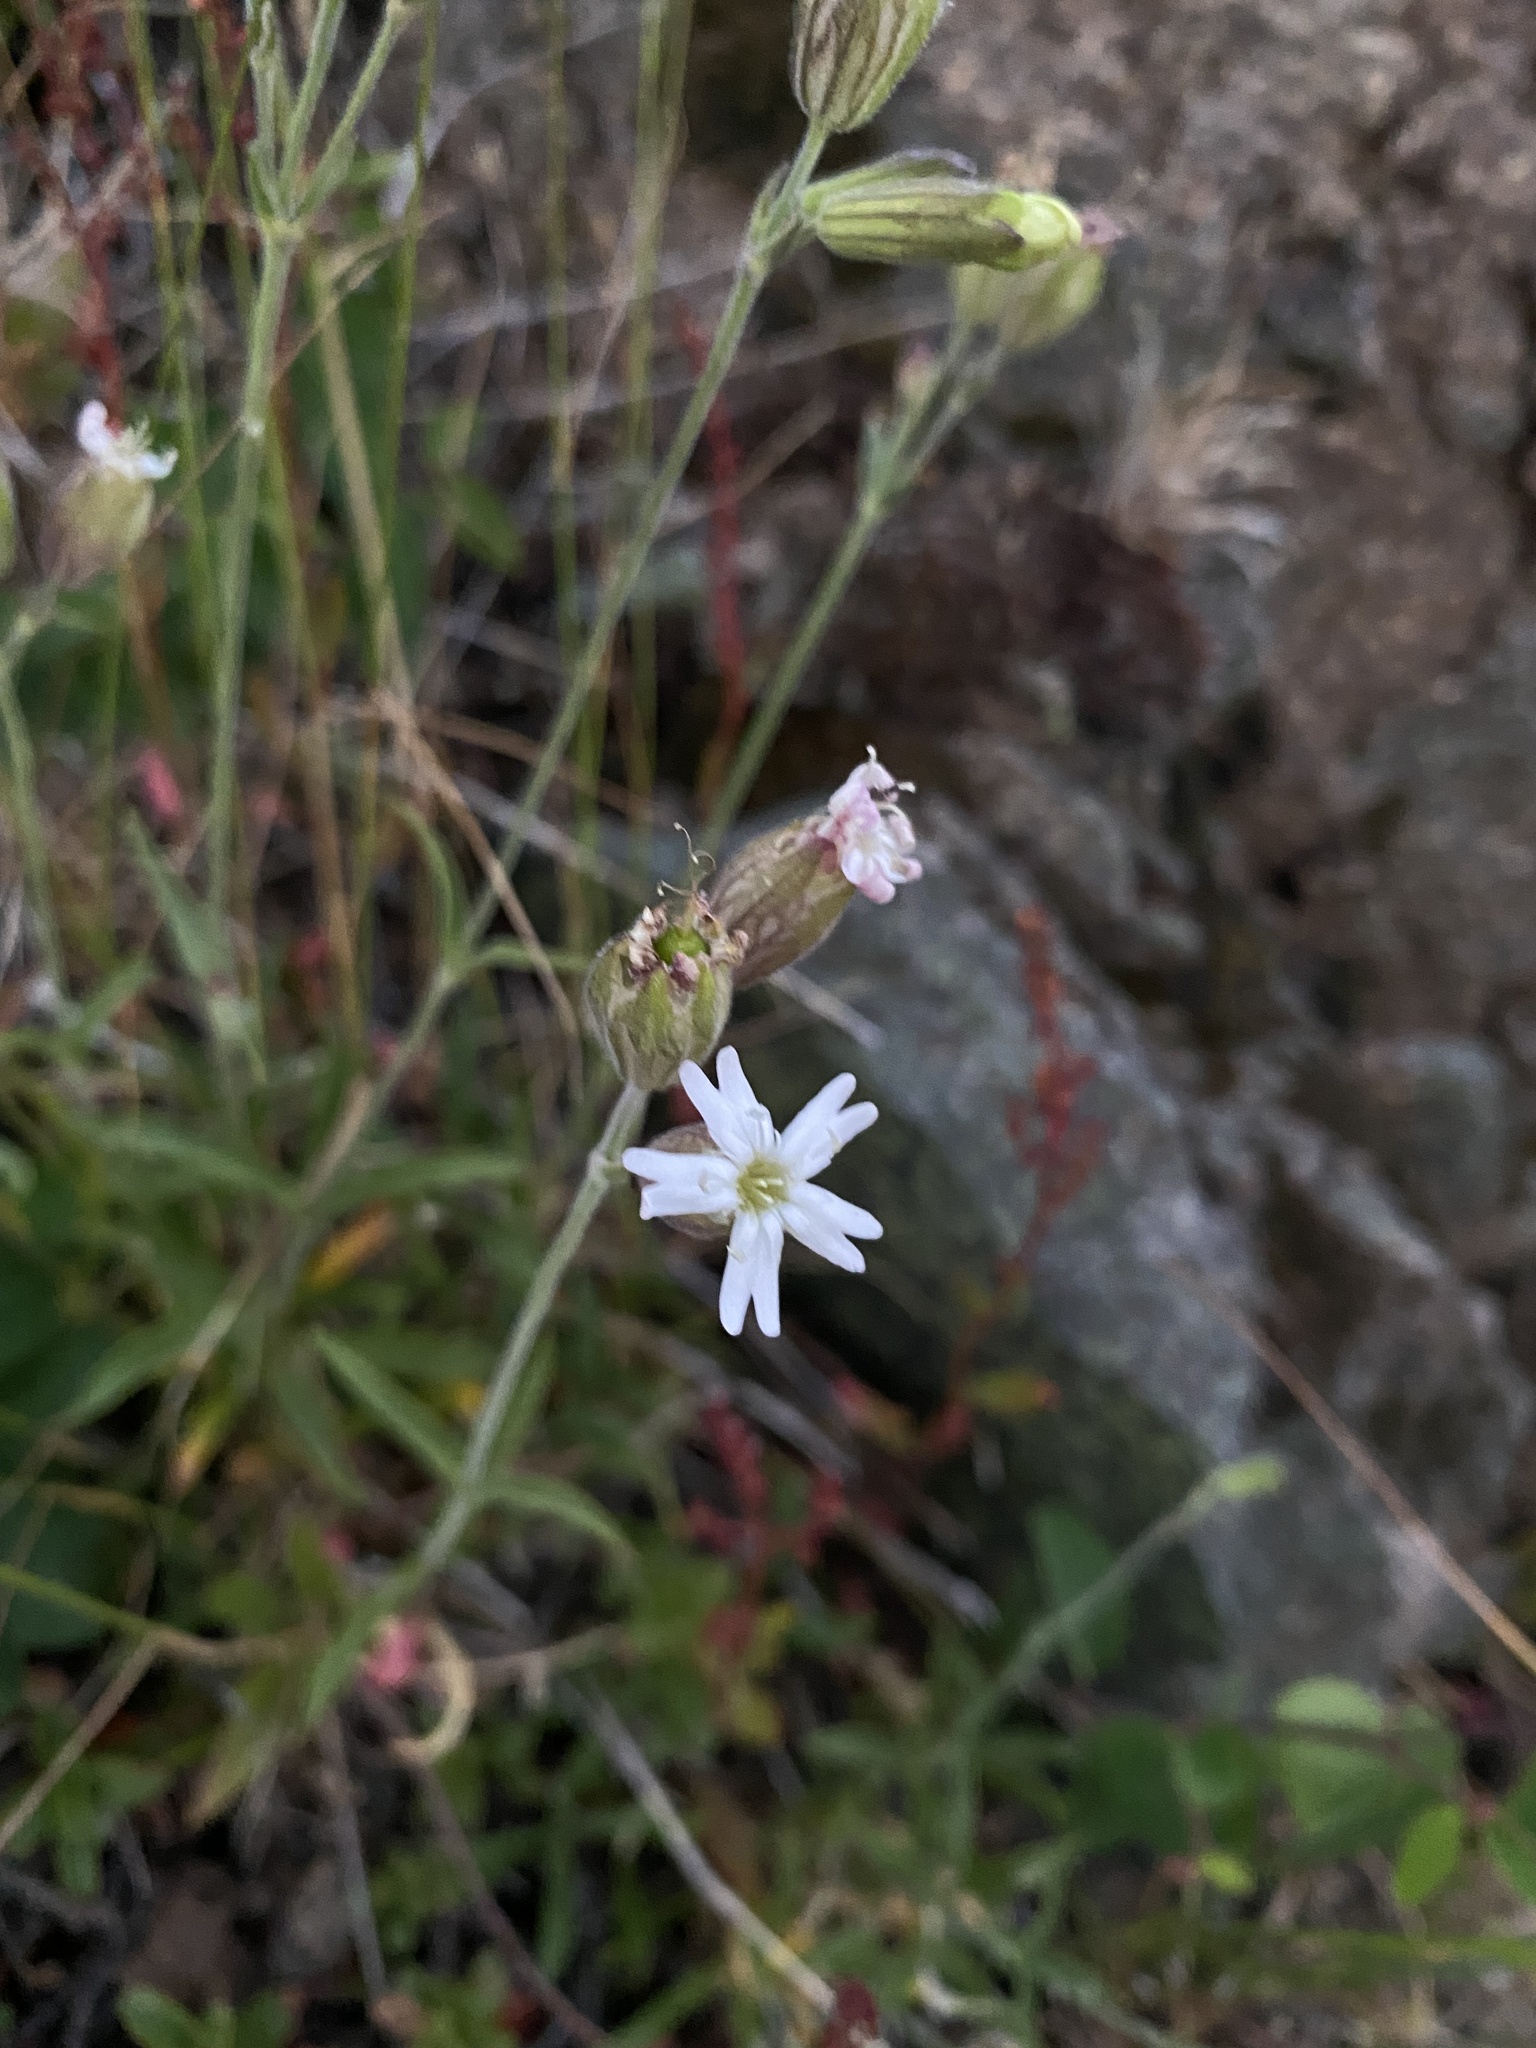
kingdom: Plantae
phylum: Tracheophyta
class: Magnoliopsida
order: Caryophyllales
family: Caryophyllaceae
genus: Silene
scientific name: Silene douglasii
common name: Douglas's catchfly
